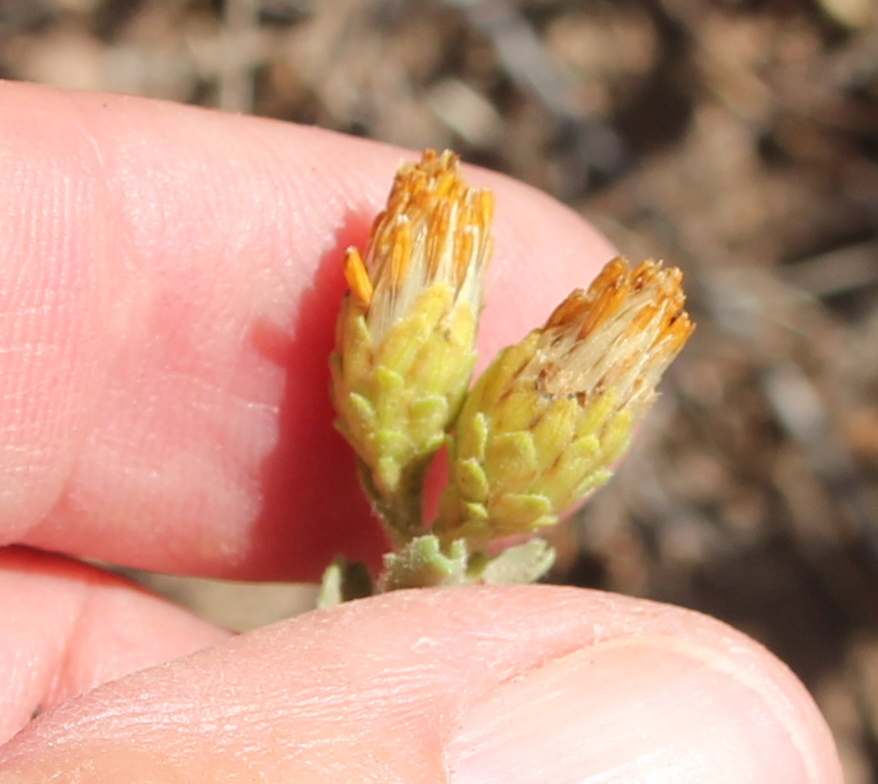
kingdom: Plantae
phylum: Tracheophyta
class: Magnoliopsida
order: Asterales
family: Asteraceae
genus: Isocoma
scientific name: Isocoma menziesii
